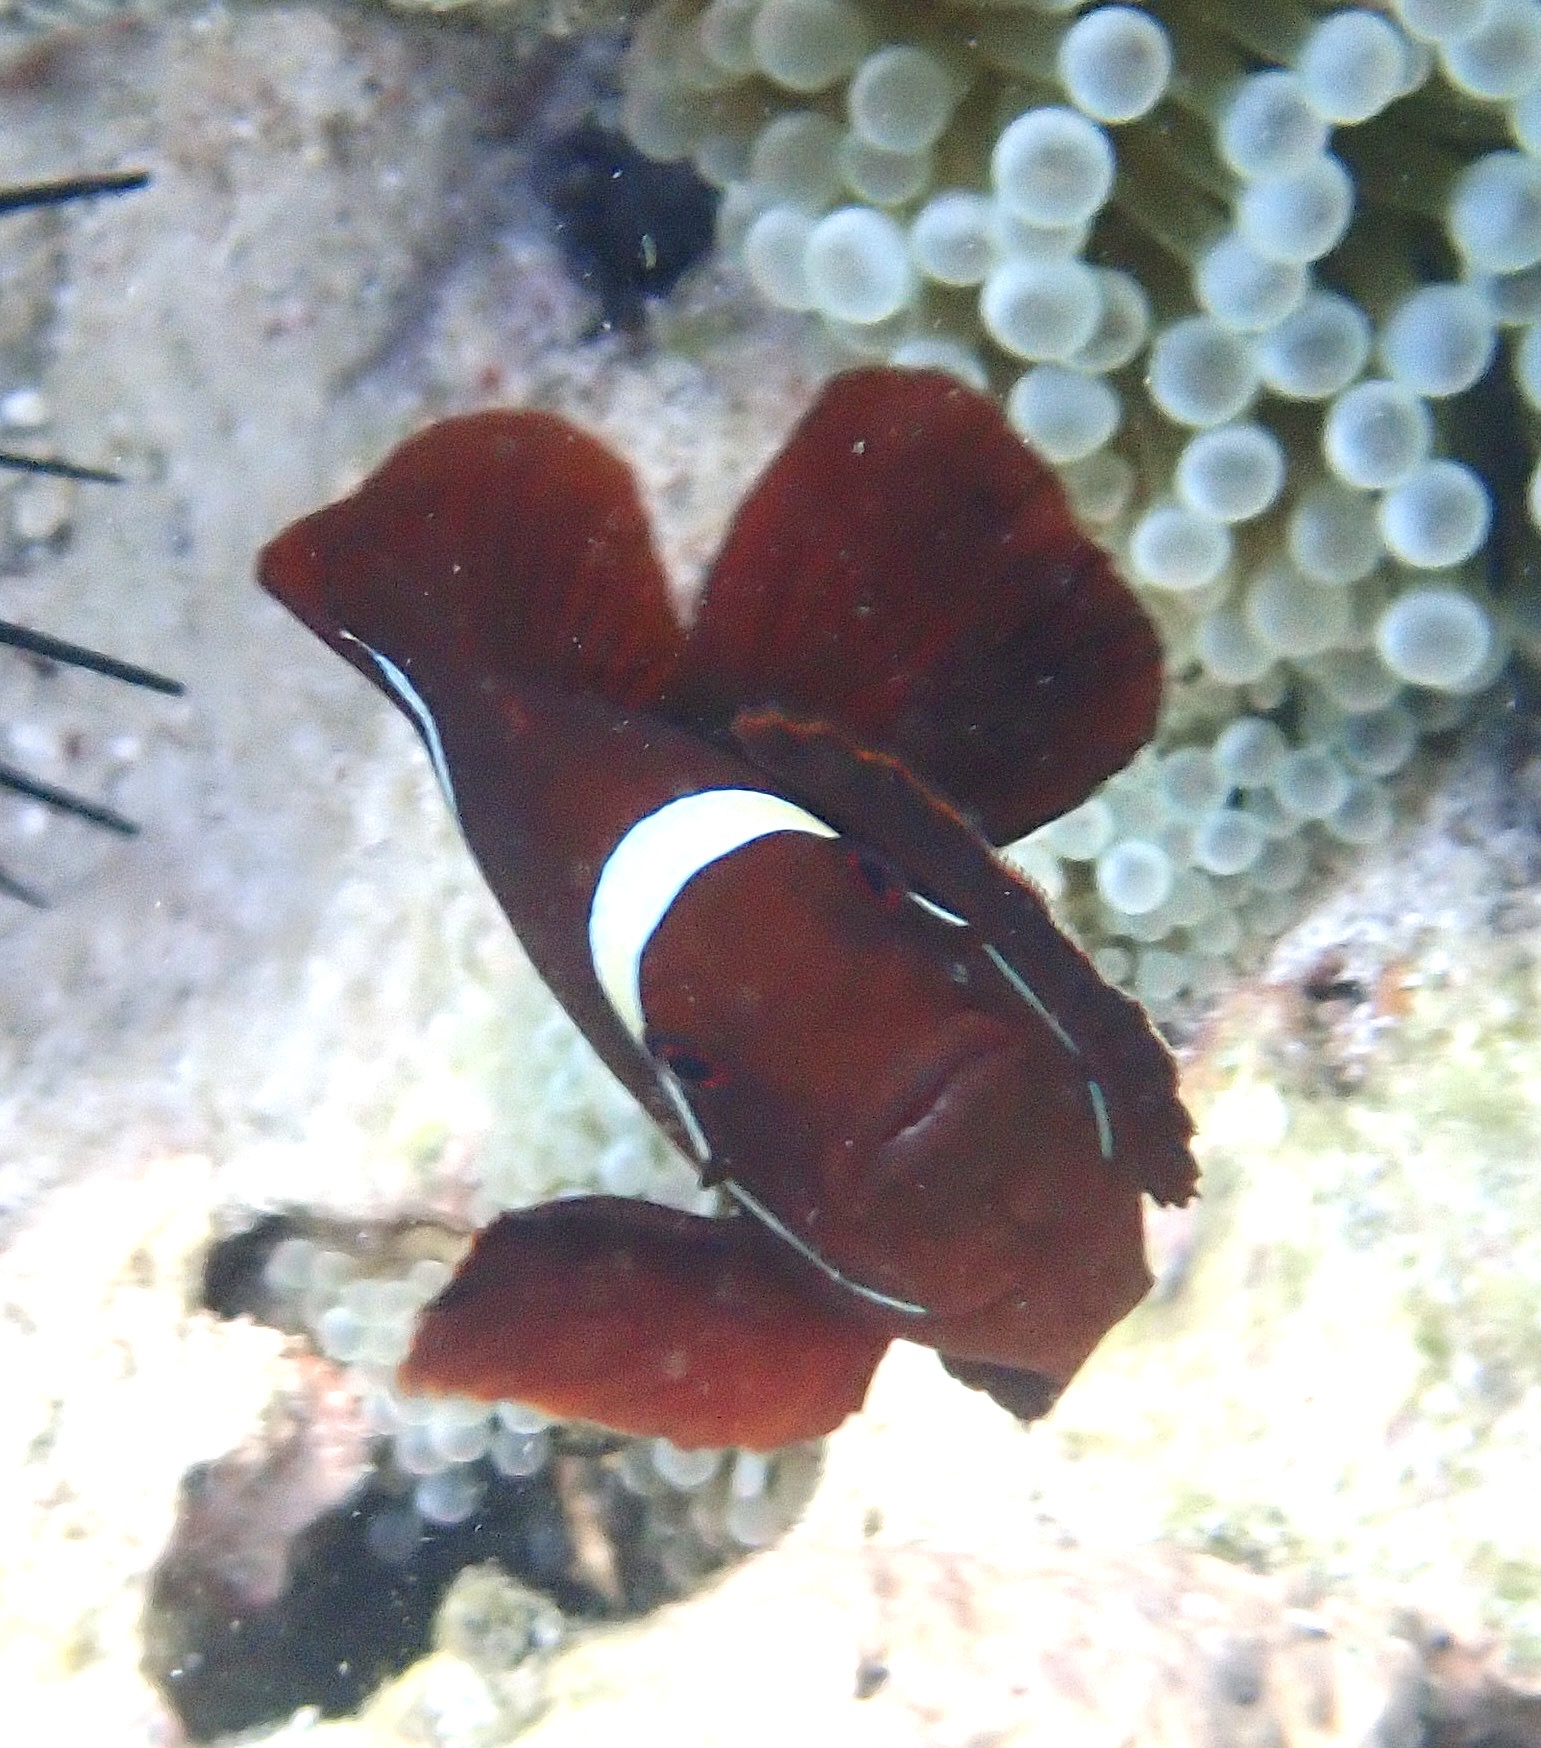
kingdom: Animalia
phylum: Chordata
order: Perciformes
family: Pomacentridae
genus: Premnas
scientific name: Premnas biaculeatus
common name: Spinecheek anemonefish
